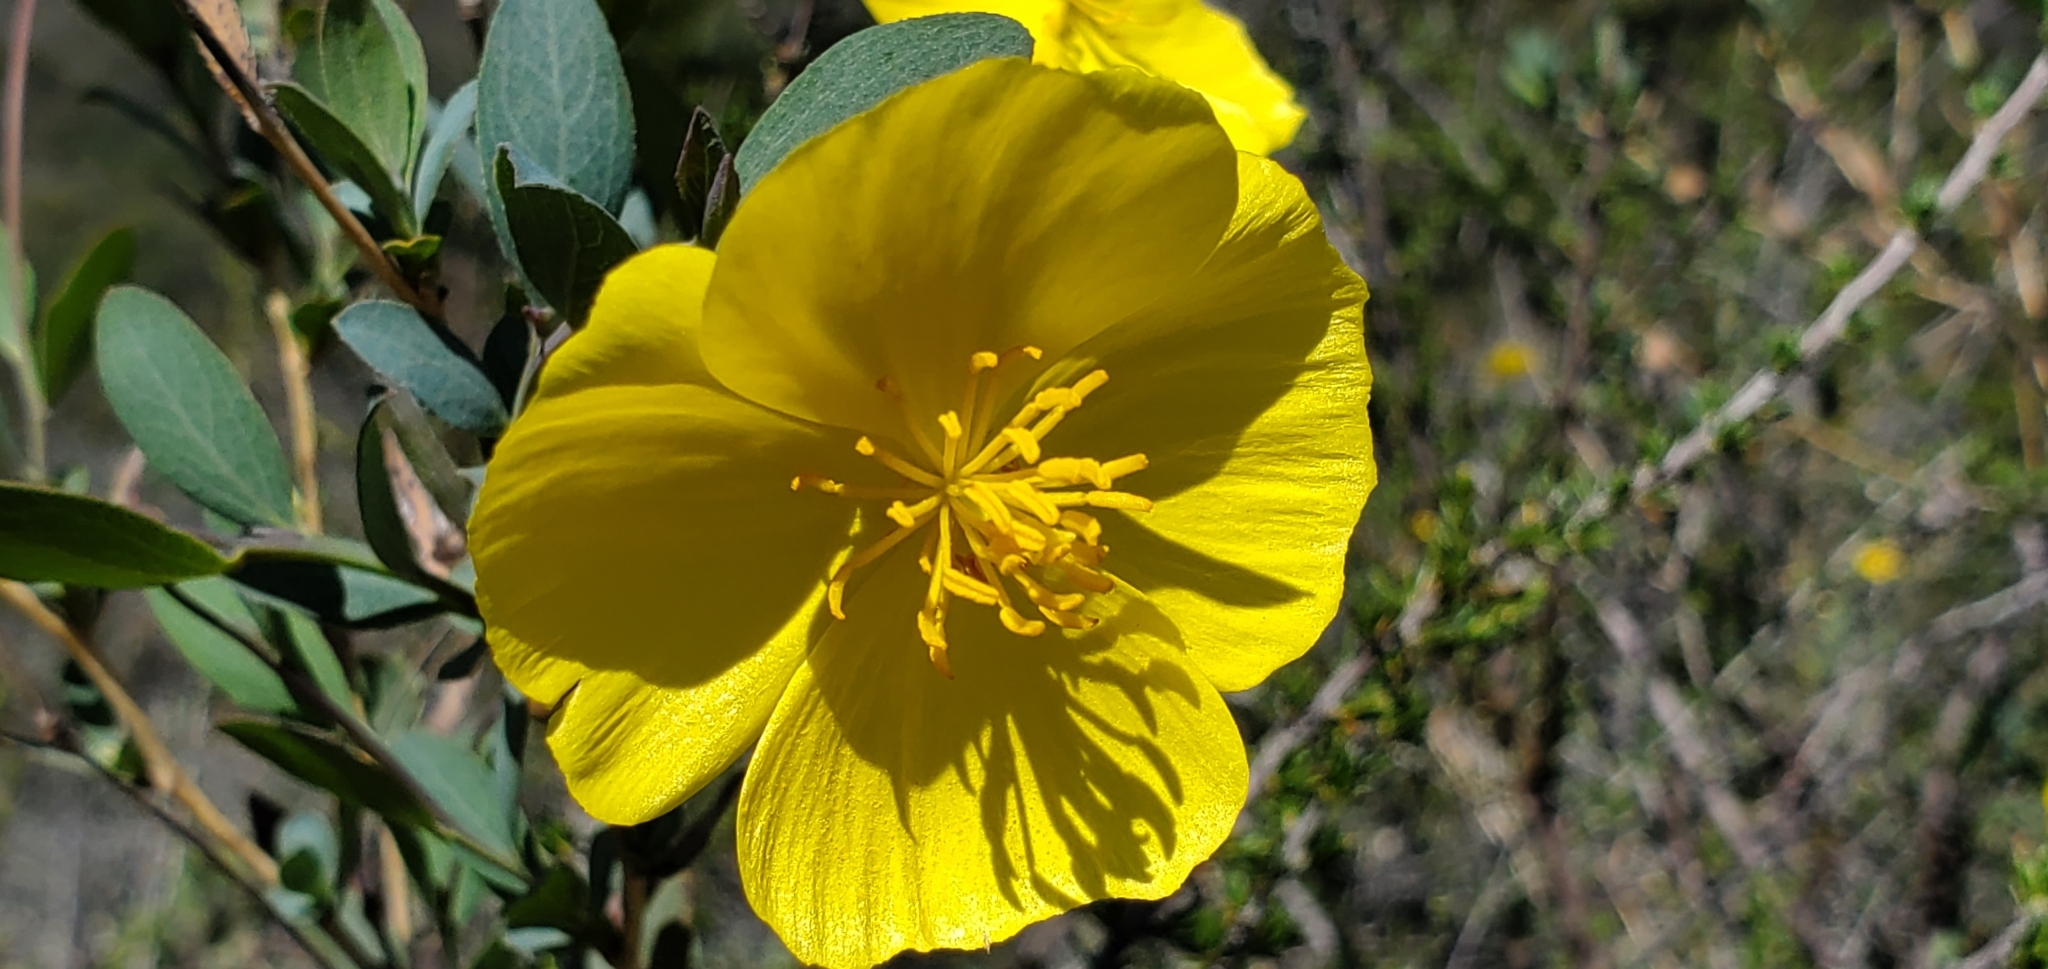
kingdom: Plantae
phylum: Tracheophyta
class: Magnoliopsida
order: Ranunculales
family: Papaveraceae
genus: Dendromecon
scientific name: Dendromecon rigida
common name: Tree poppy
